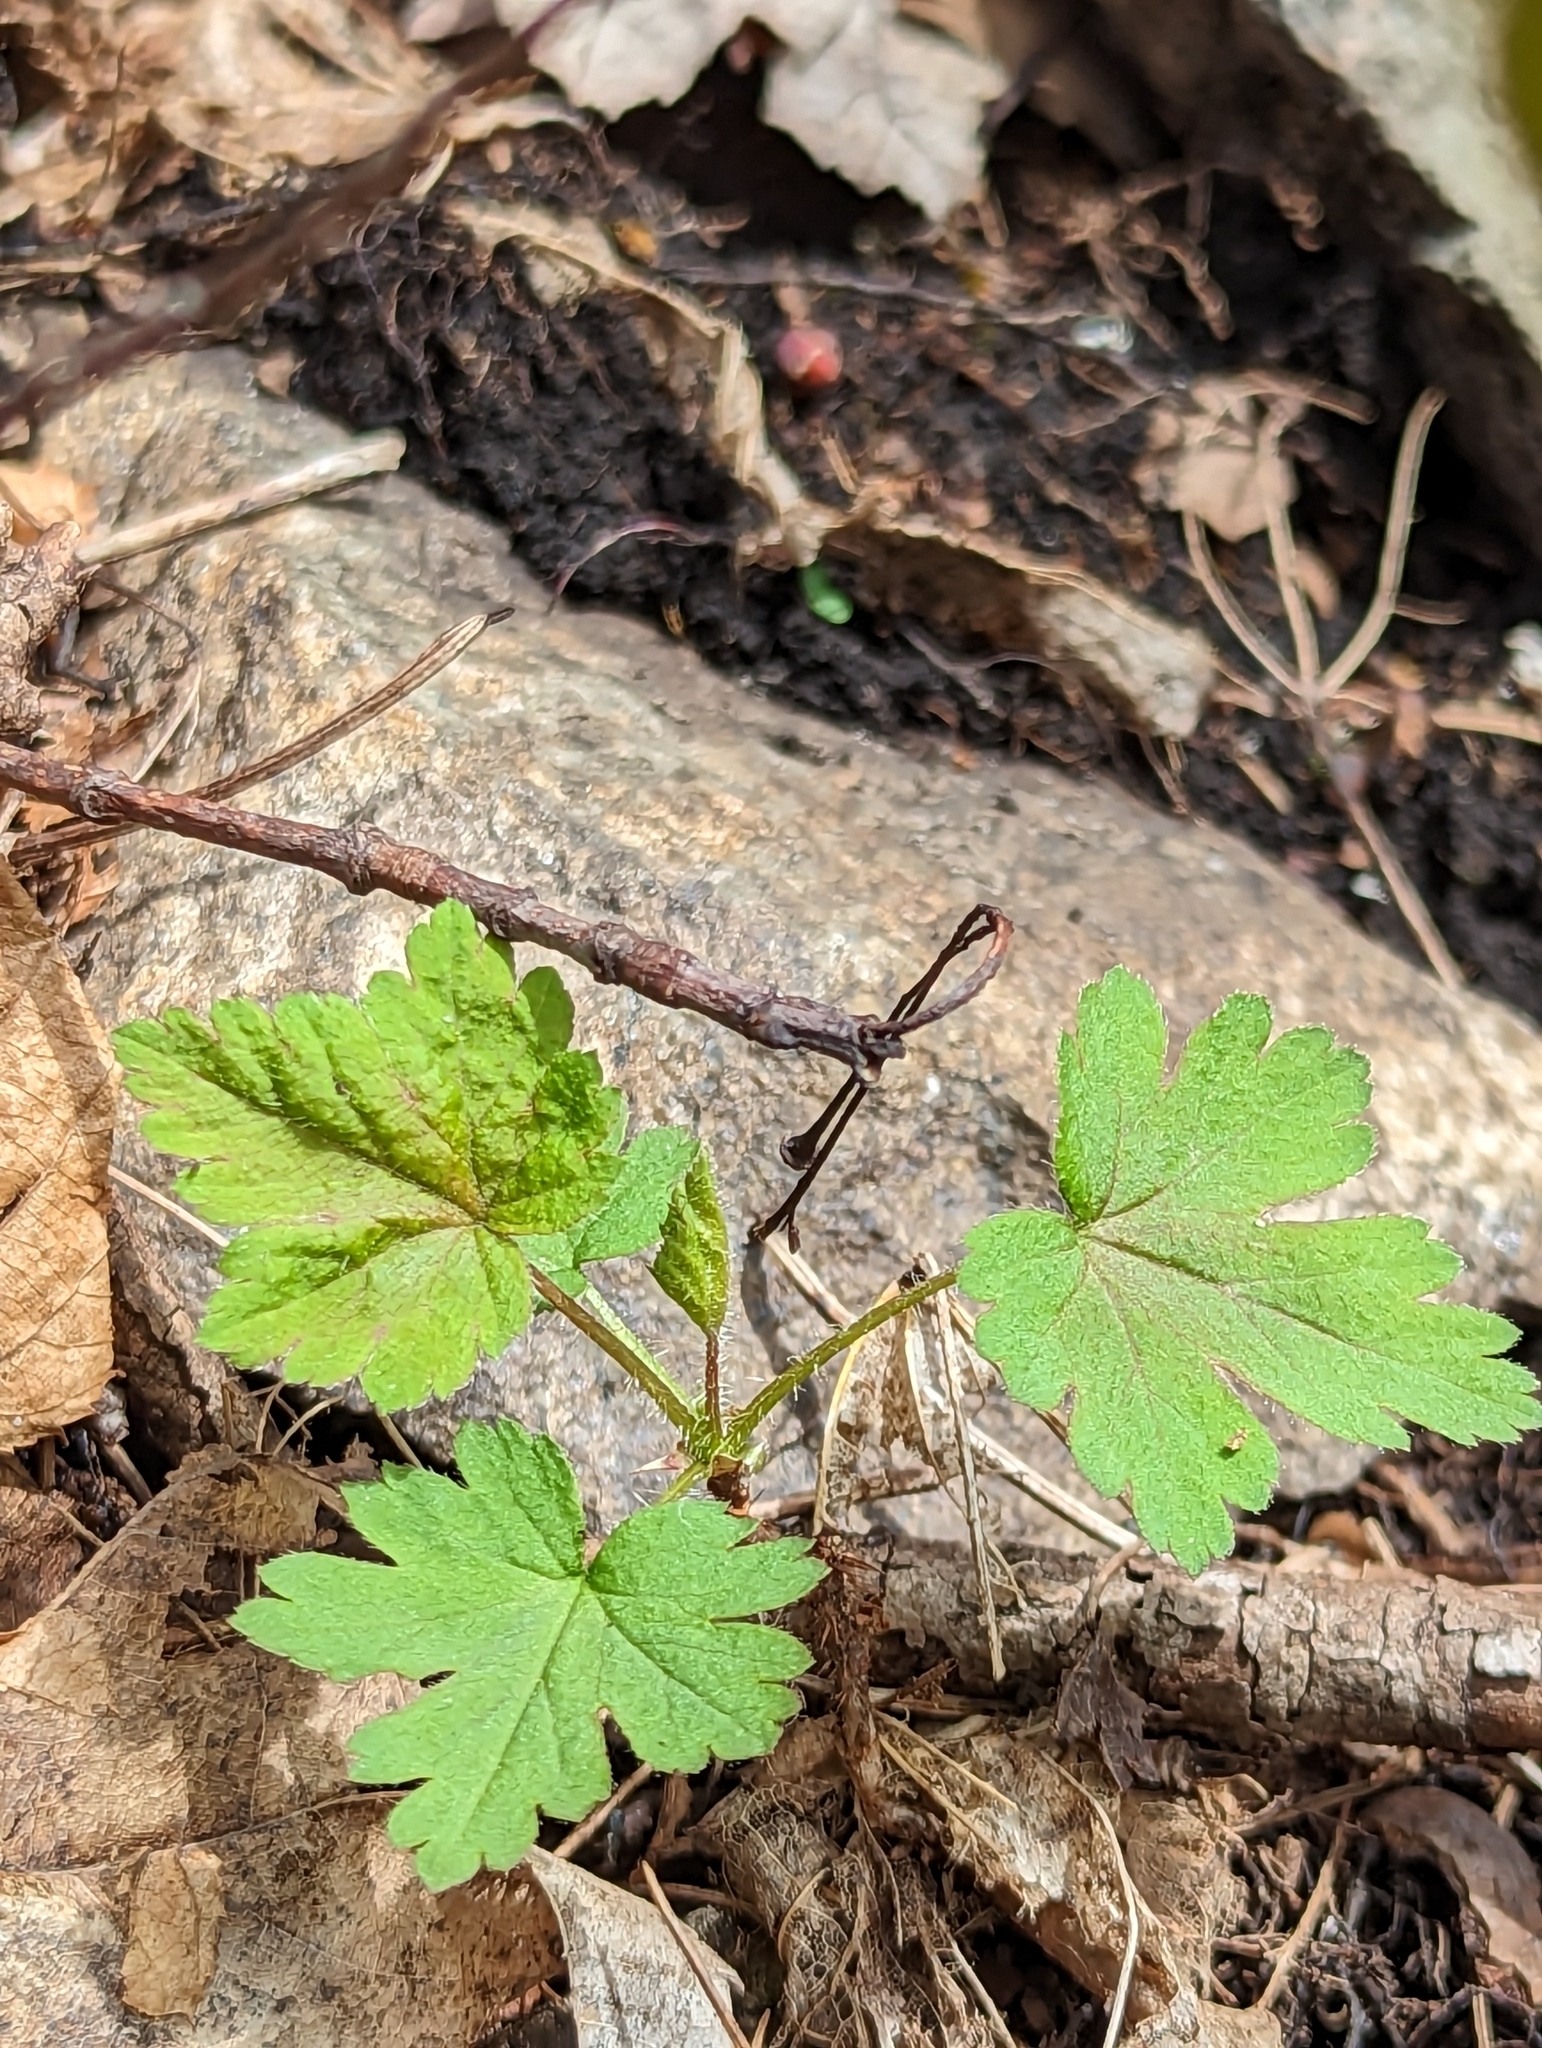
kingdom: Plantae
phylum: Tracheophyta
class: Magnoliopsida
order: Saxifragales
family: Grossulariaceae
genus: Ribes
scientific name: Ribes cynosbati
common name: American gooseberry
